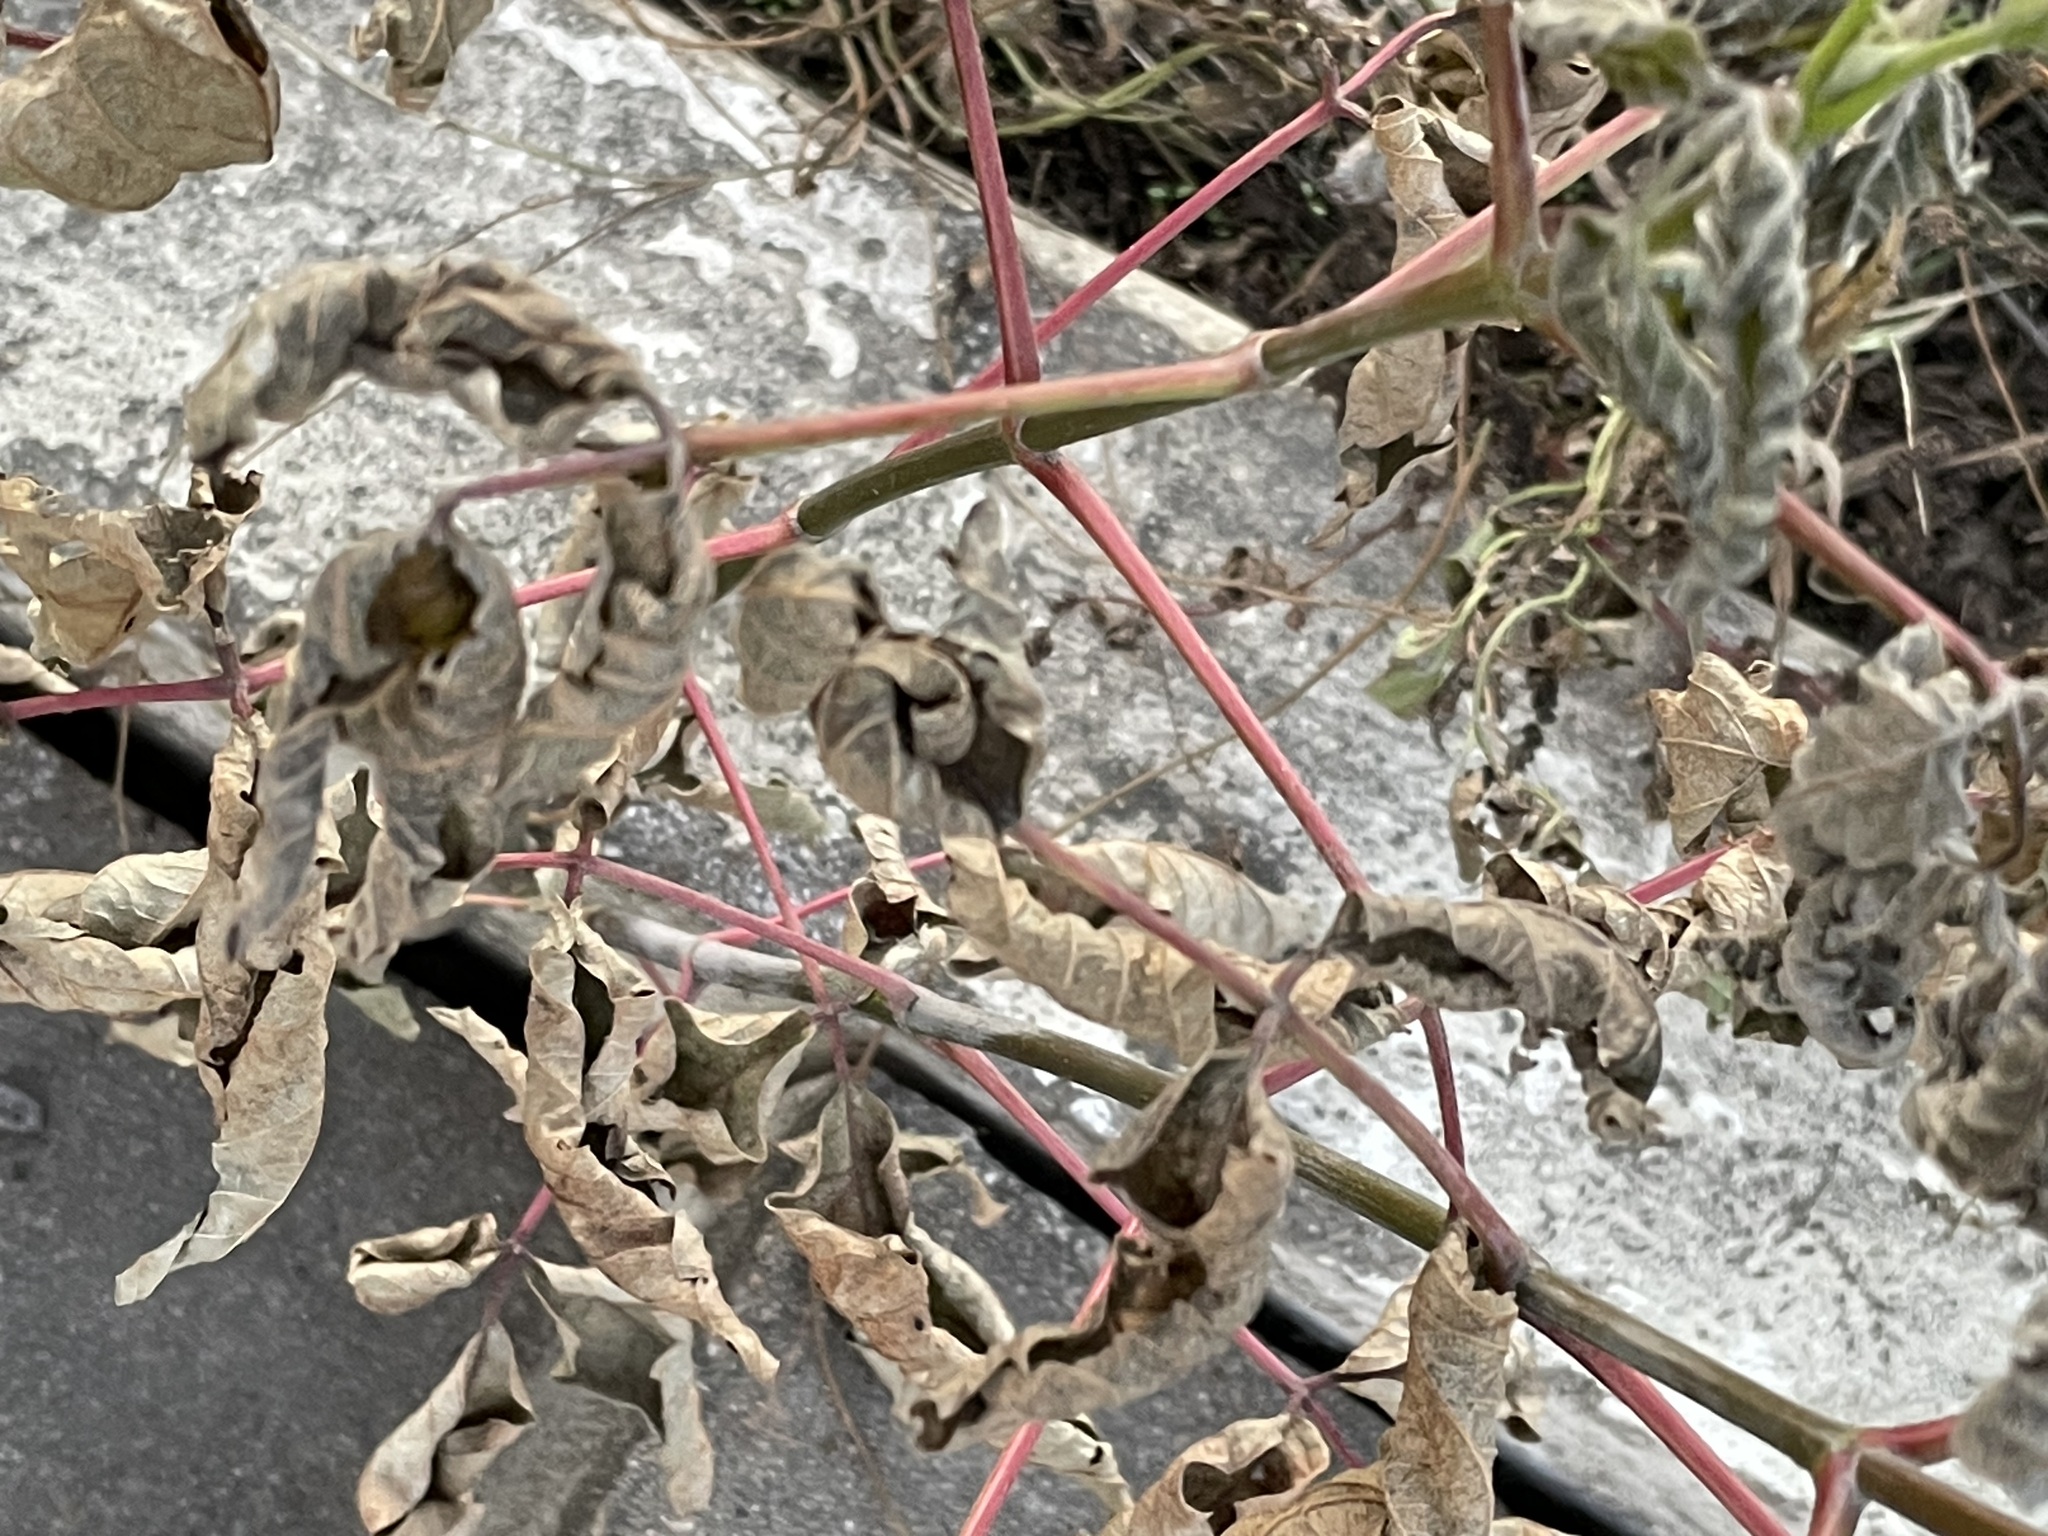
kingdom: Plantae
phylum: Tracheophyta
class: Magnoliopsida
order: Sapindales
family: Sapindaceae
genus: Acer
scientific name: Acer negundo
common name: Ashleaf maple
